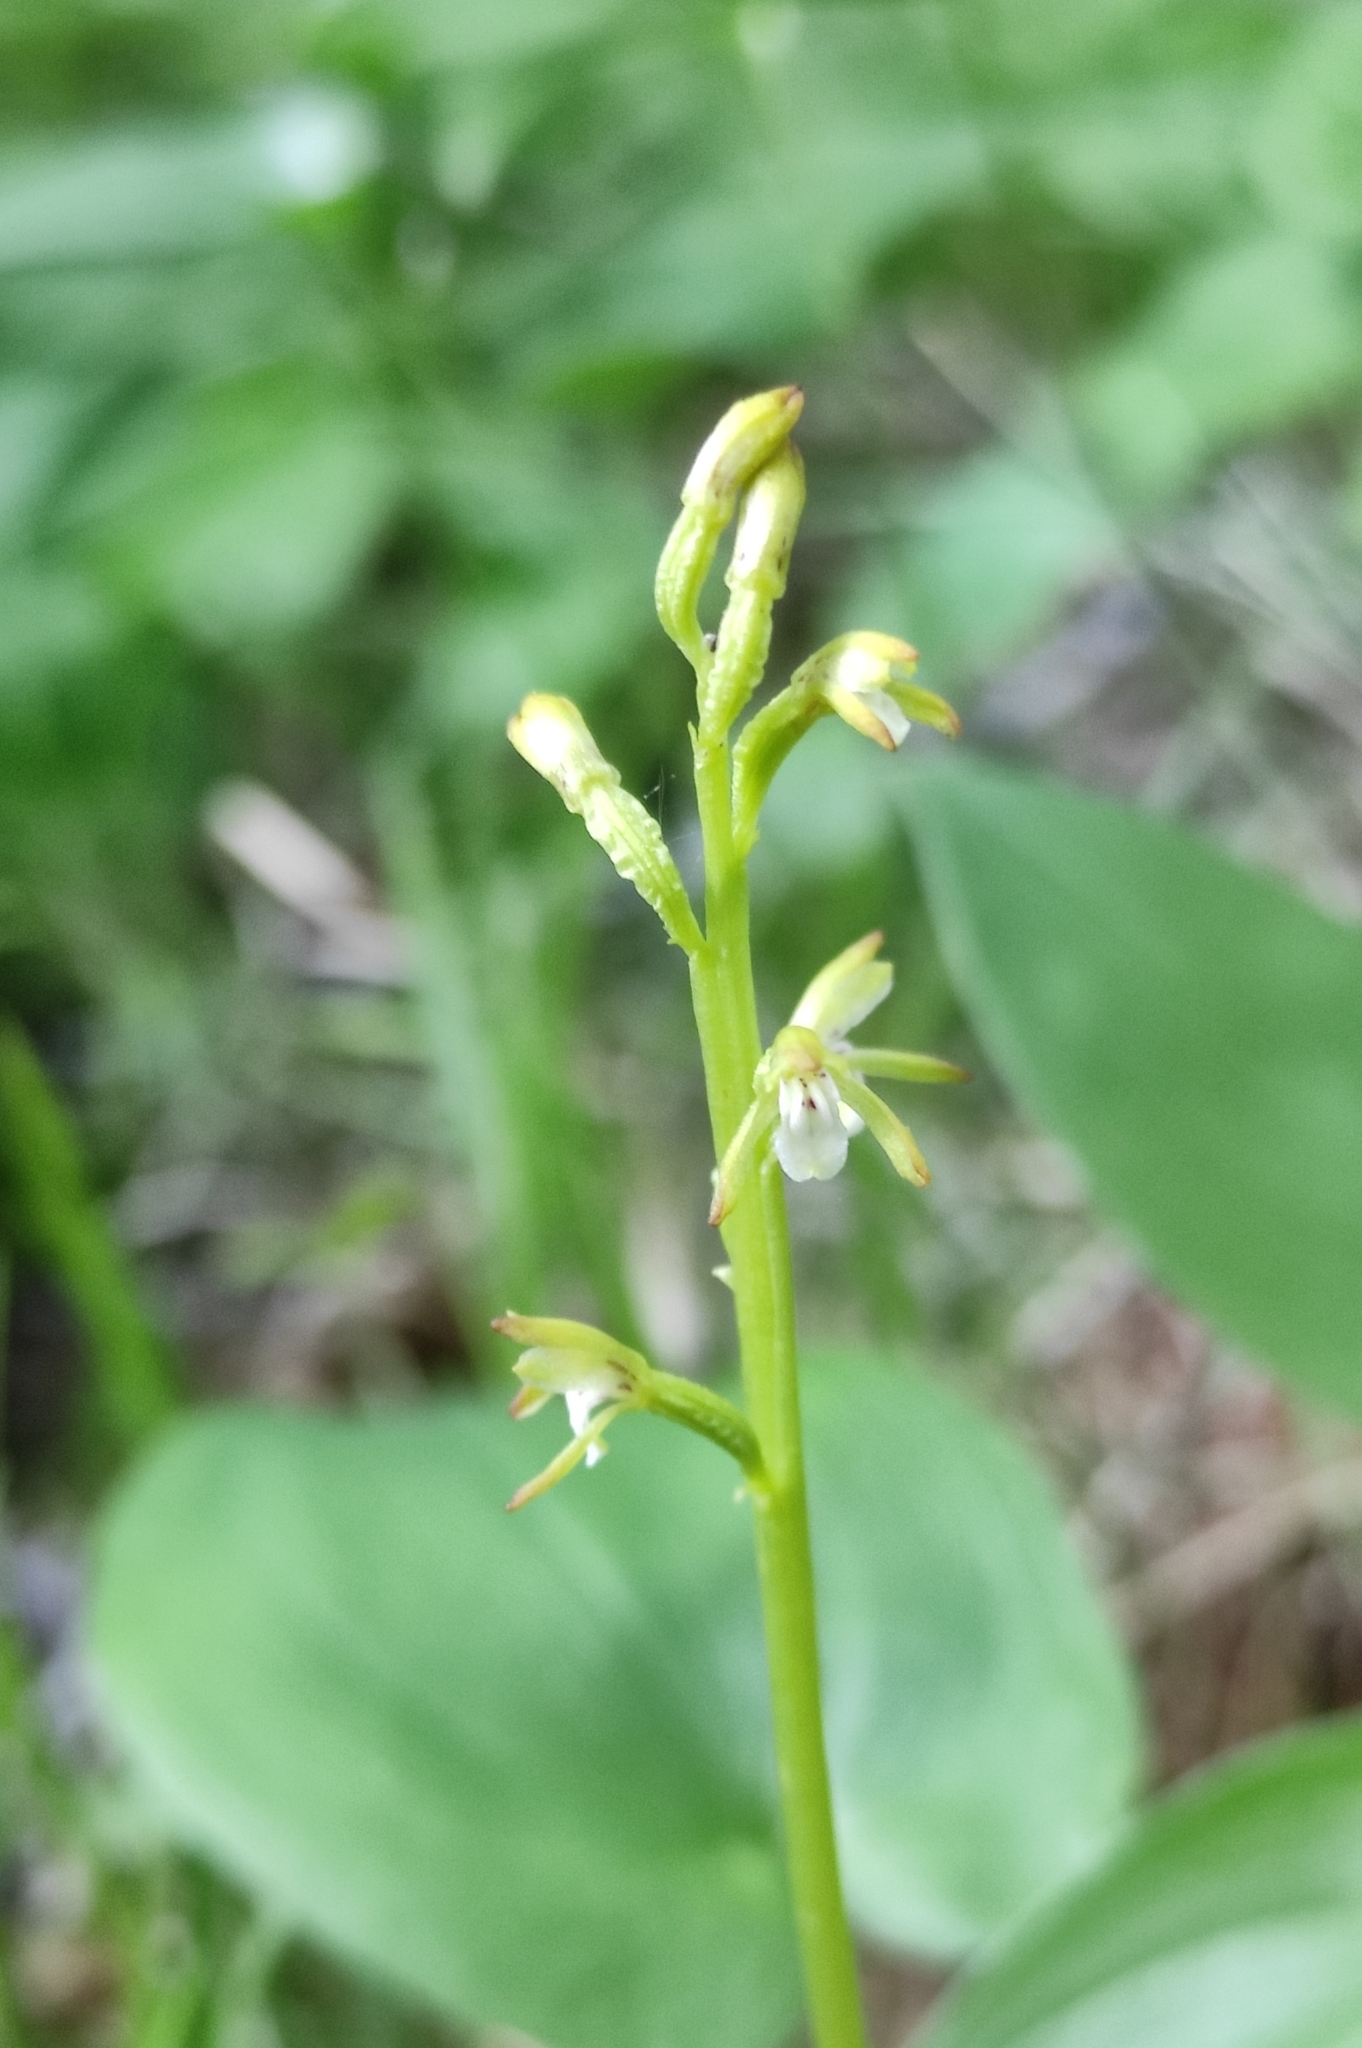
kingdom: Plantae
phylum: Tracheophyta
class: Liliopsida
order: Asparagales
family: Orchidaceae
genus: Corallorhiza
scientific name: Corallorhiza trifida
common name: Yellow coralroot
